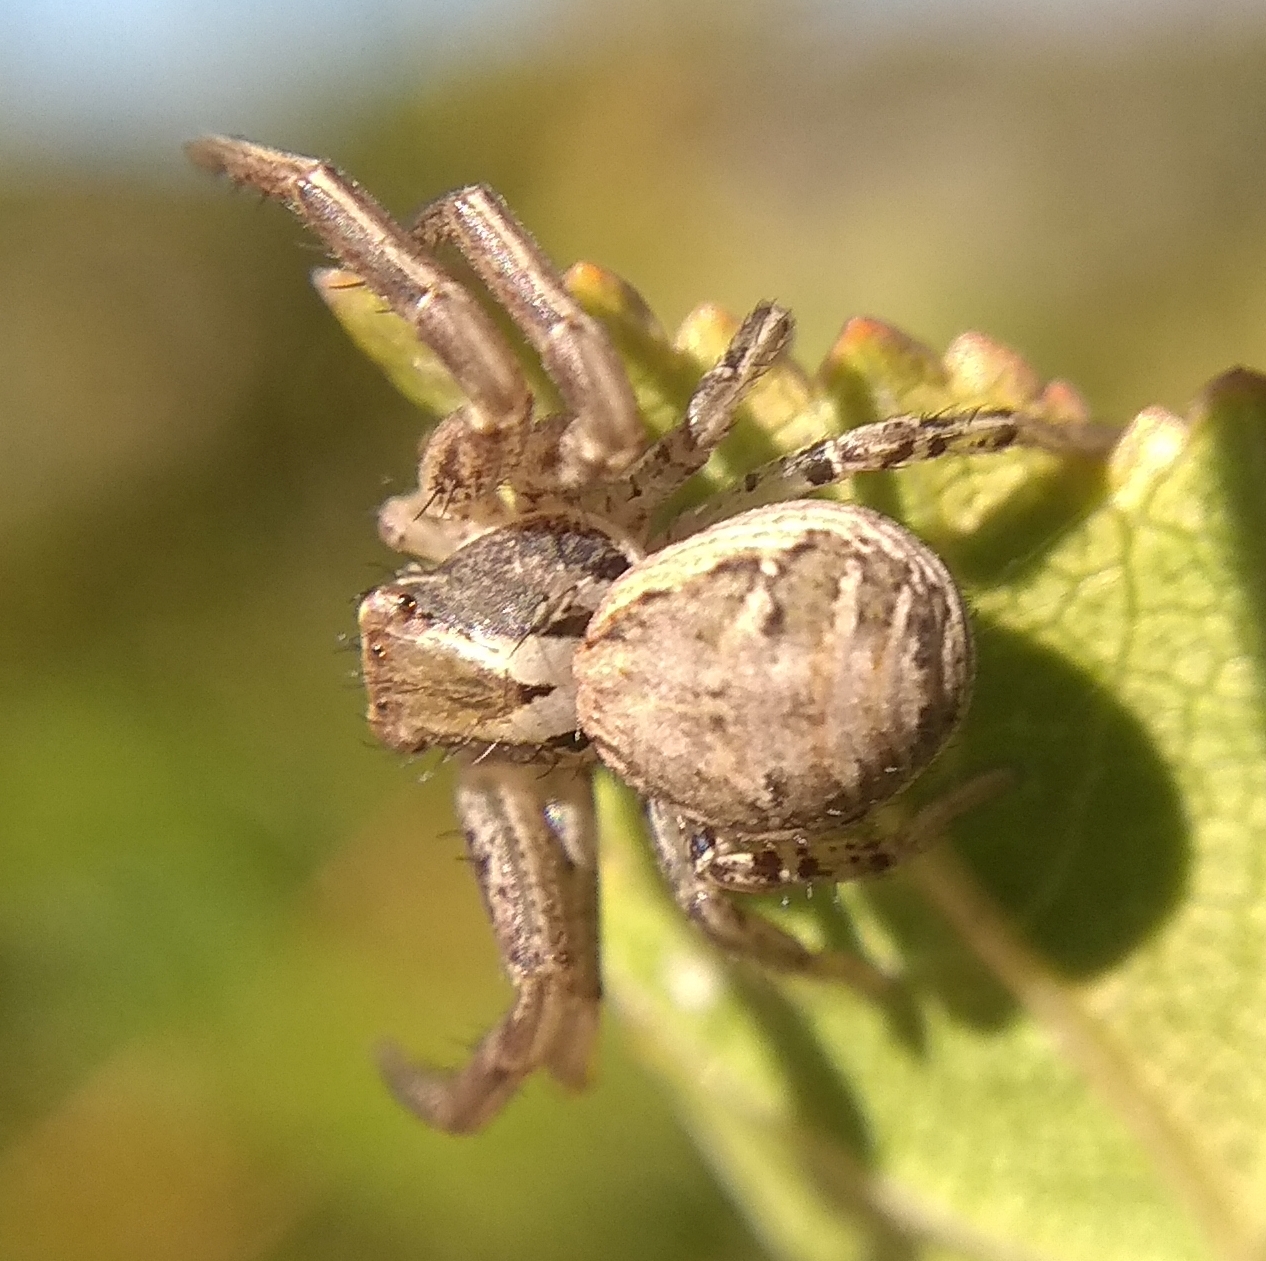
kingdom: Animalia
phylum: Arthropoda
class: Arachnida
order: Araneae
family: Thomisidae
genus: Xysticus
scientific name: Xysticus
